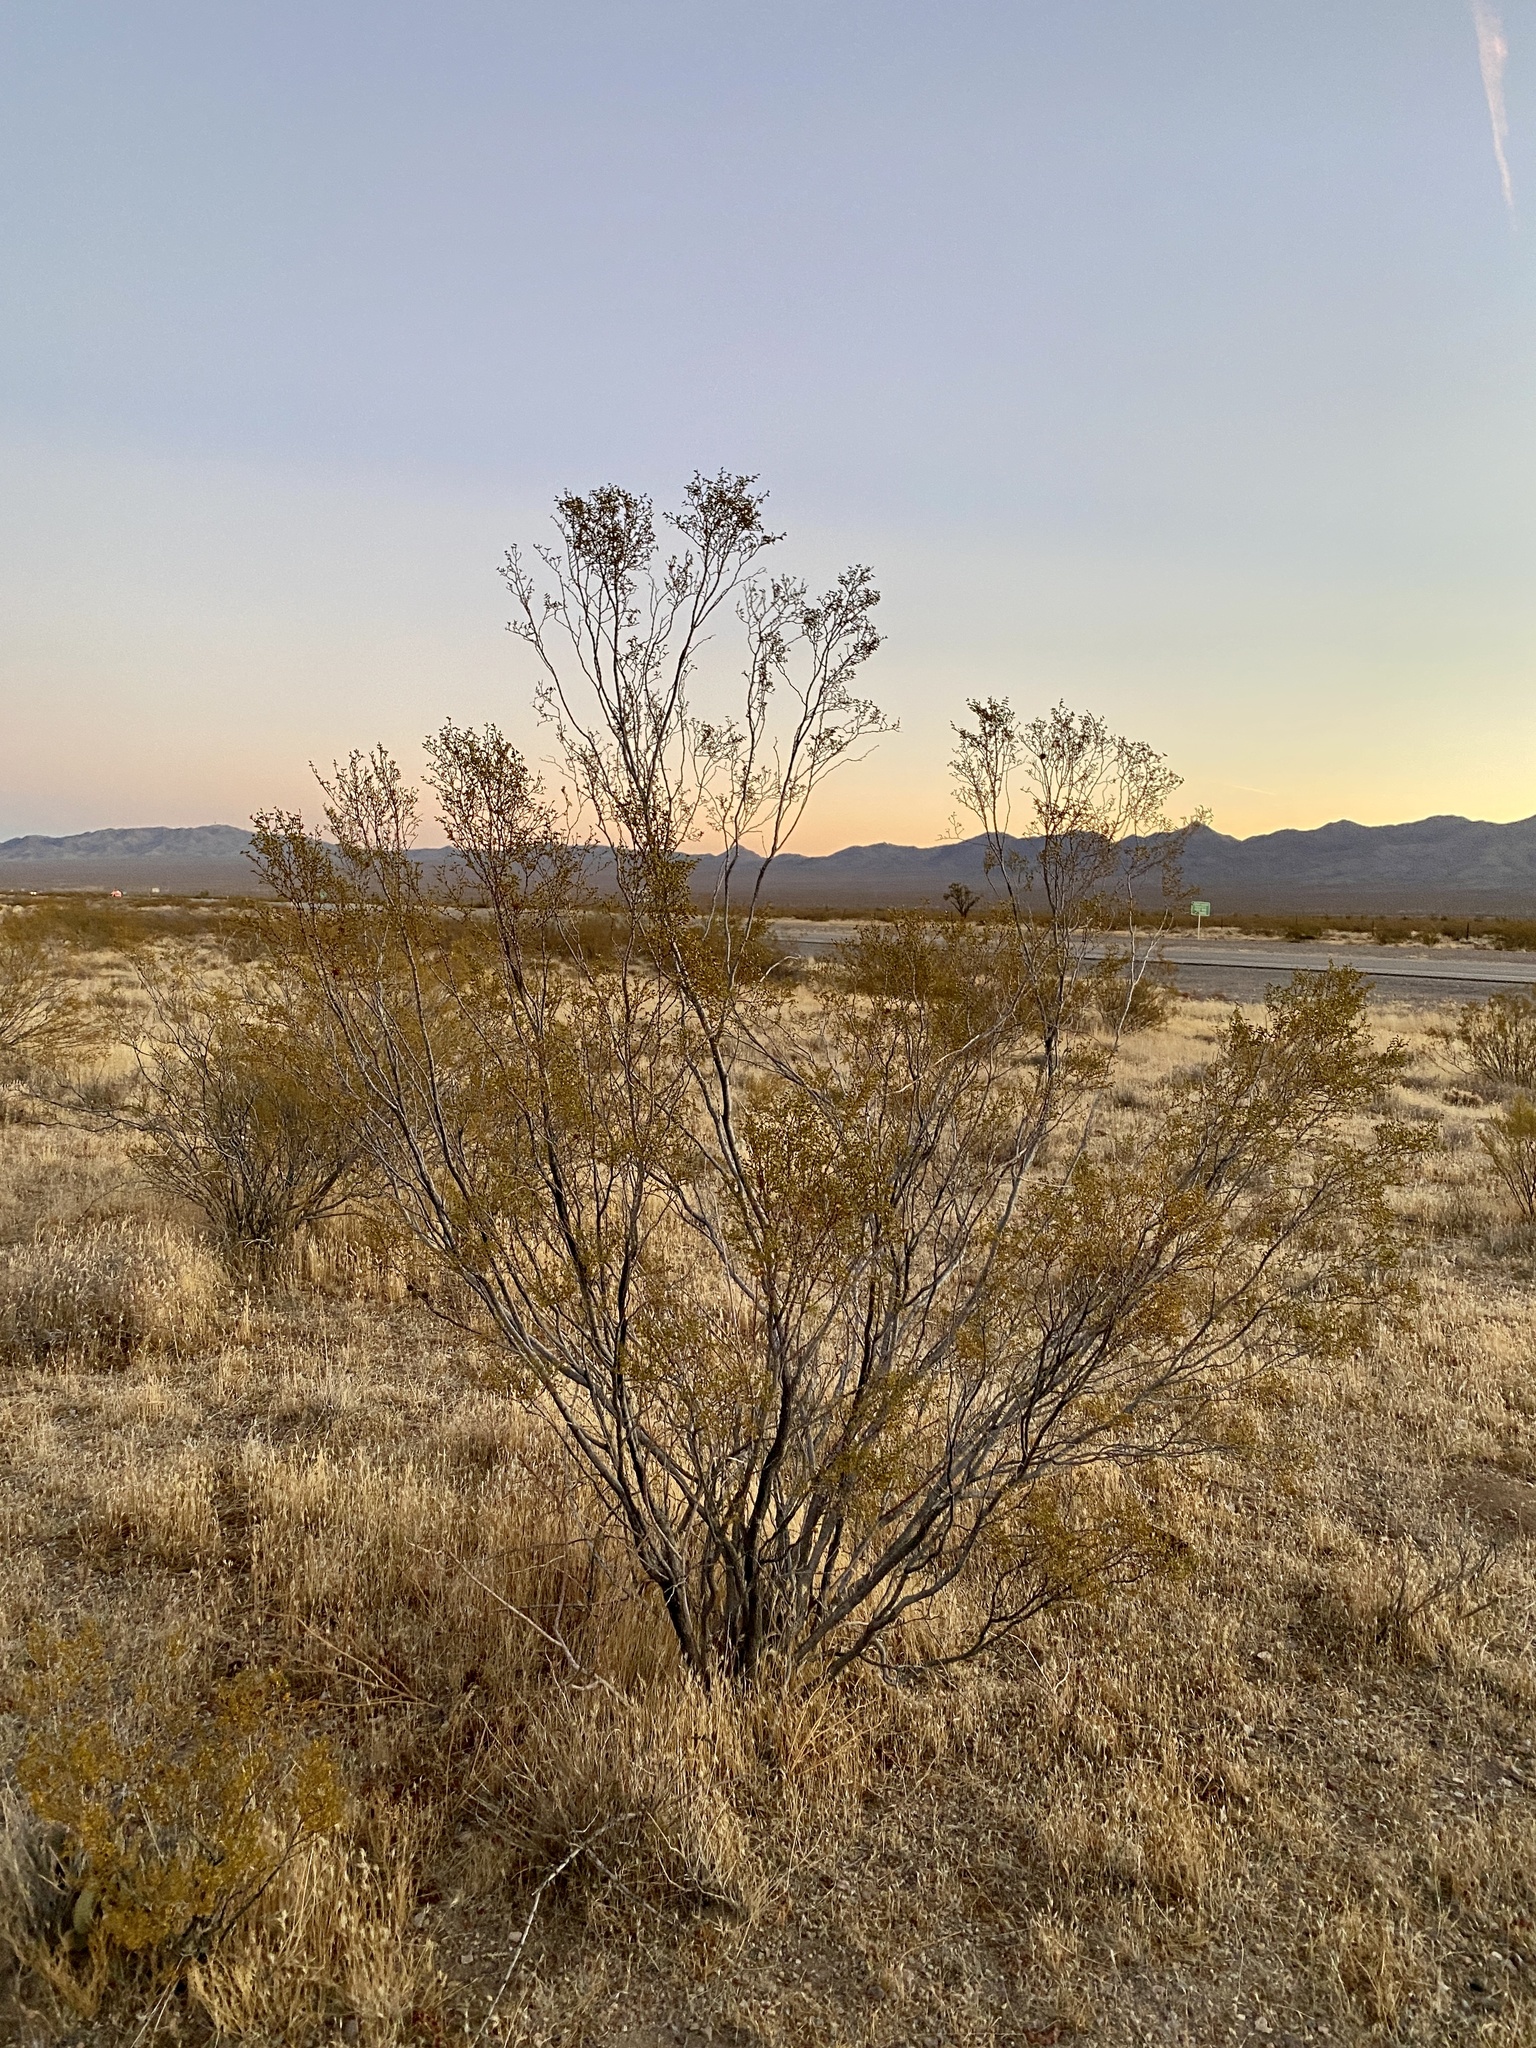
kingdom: Plantae
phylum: Tracheophyta
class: Magnoliopsida
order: Zygophyllales
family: Zygophyllaceae
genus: Larrea
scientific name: Larrea tridentata
